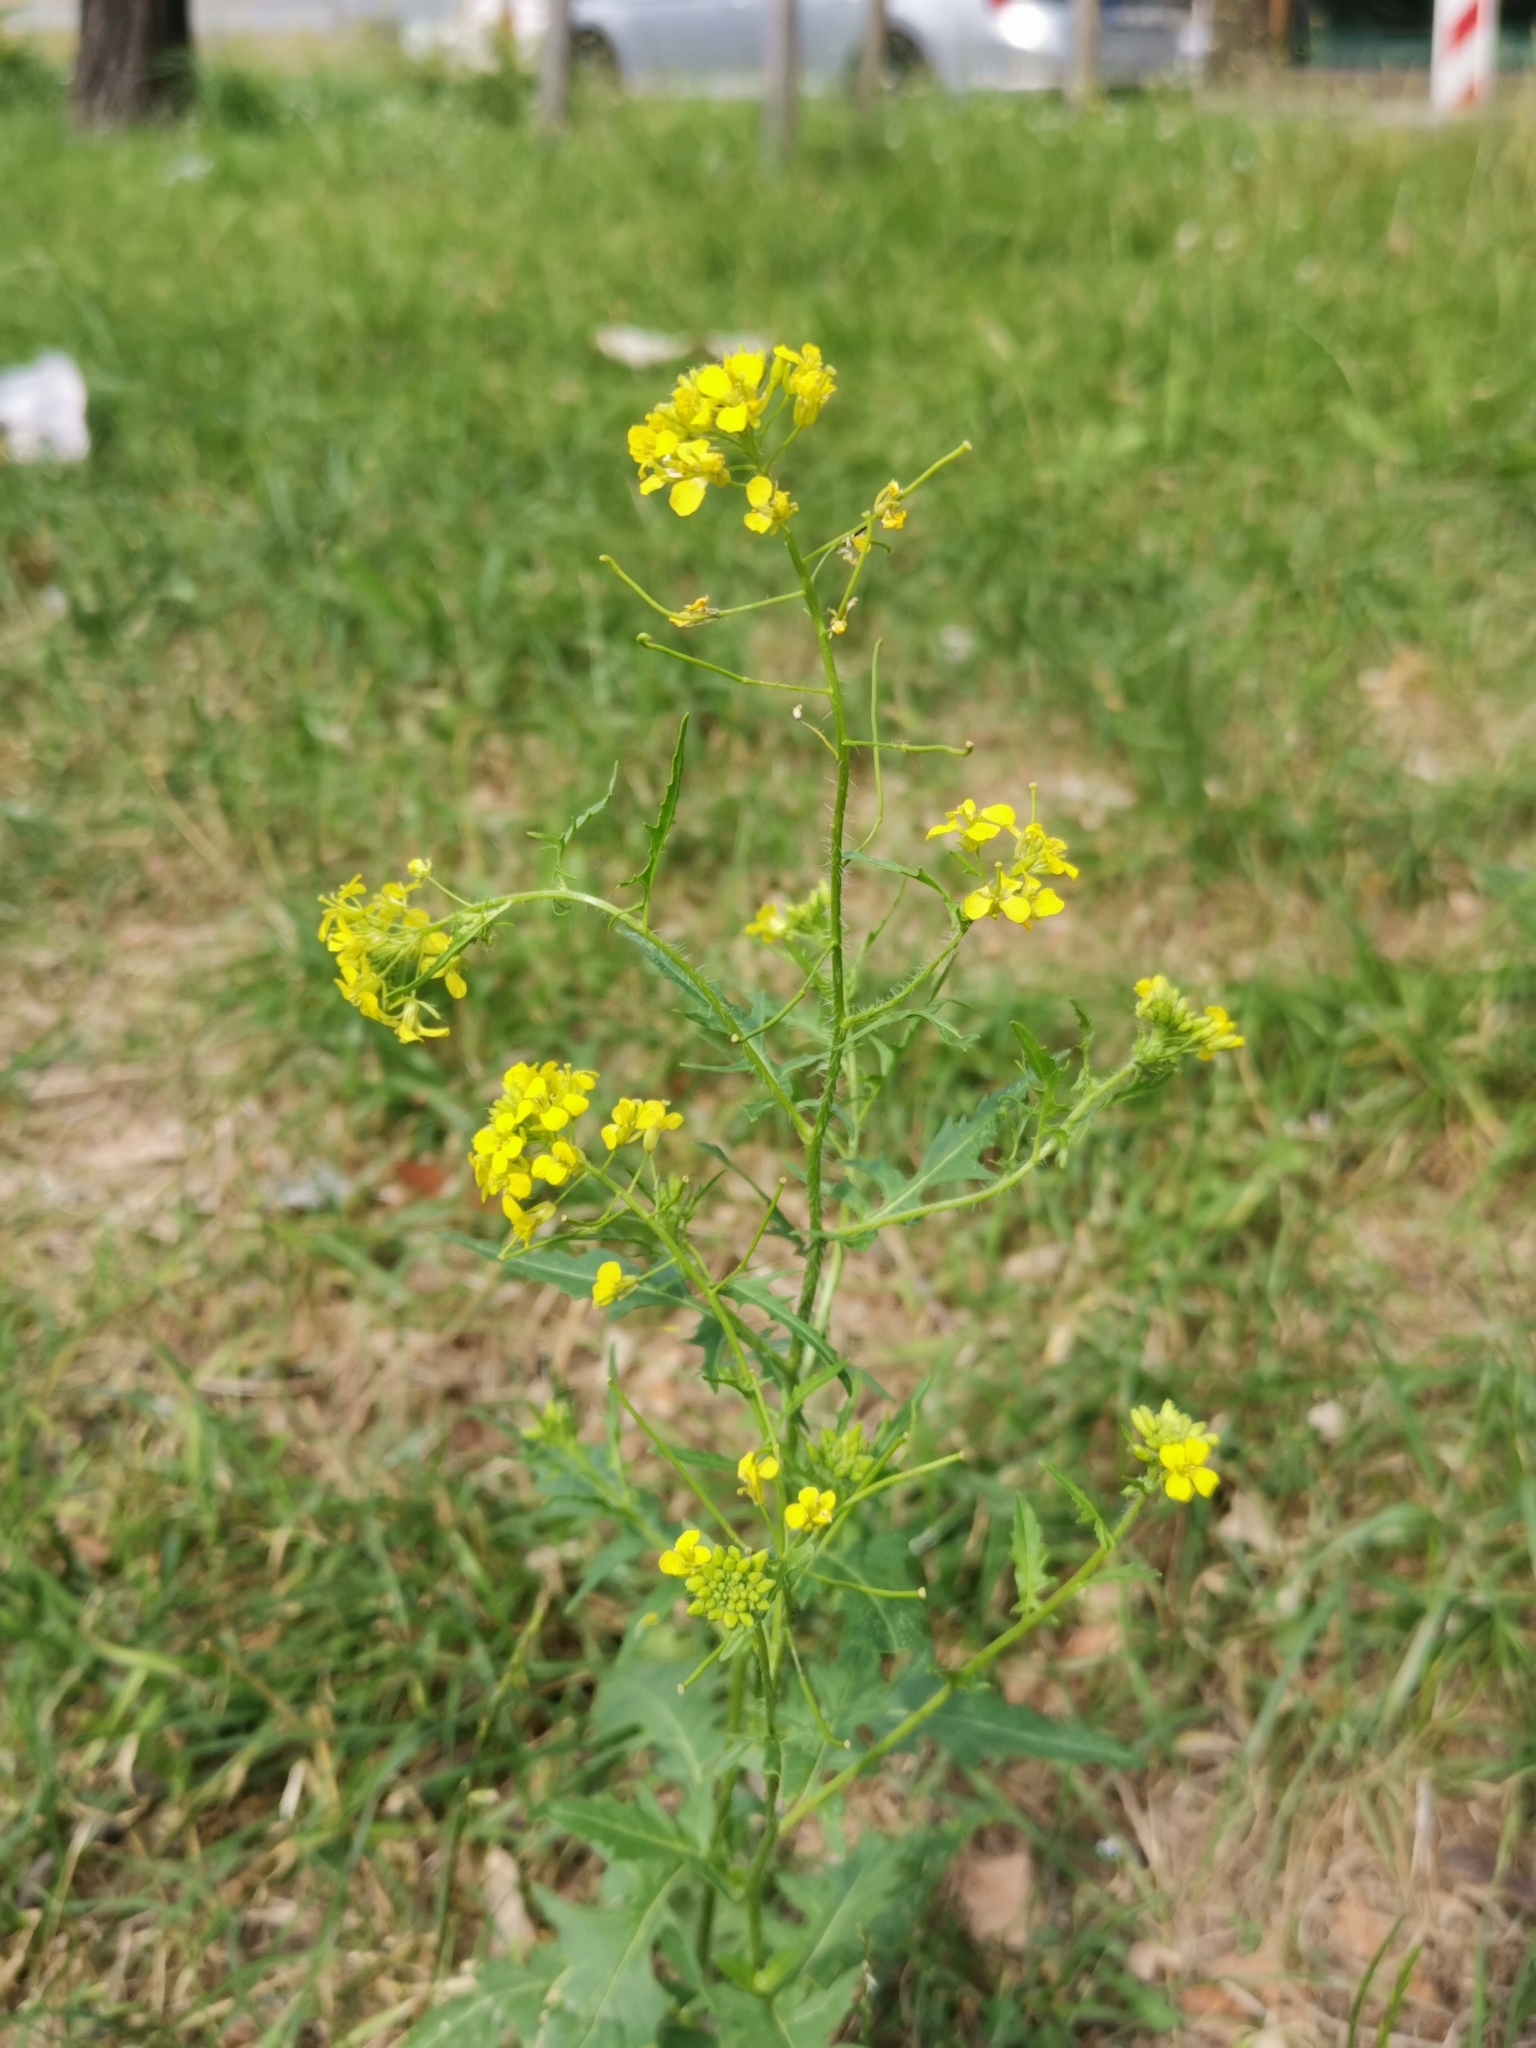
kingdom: Plantae
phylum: Tracheophyta
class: Magnoliopsida
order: Brassicales
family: Brassicaceae
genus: Sisymbrium
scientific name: Sisymbrium loeselii
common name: False london-rocket
